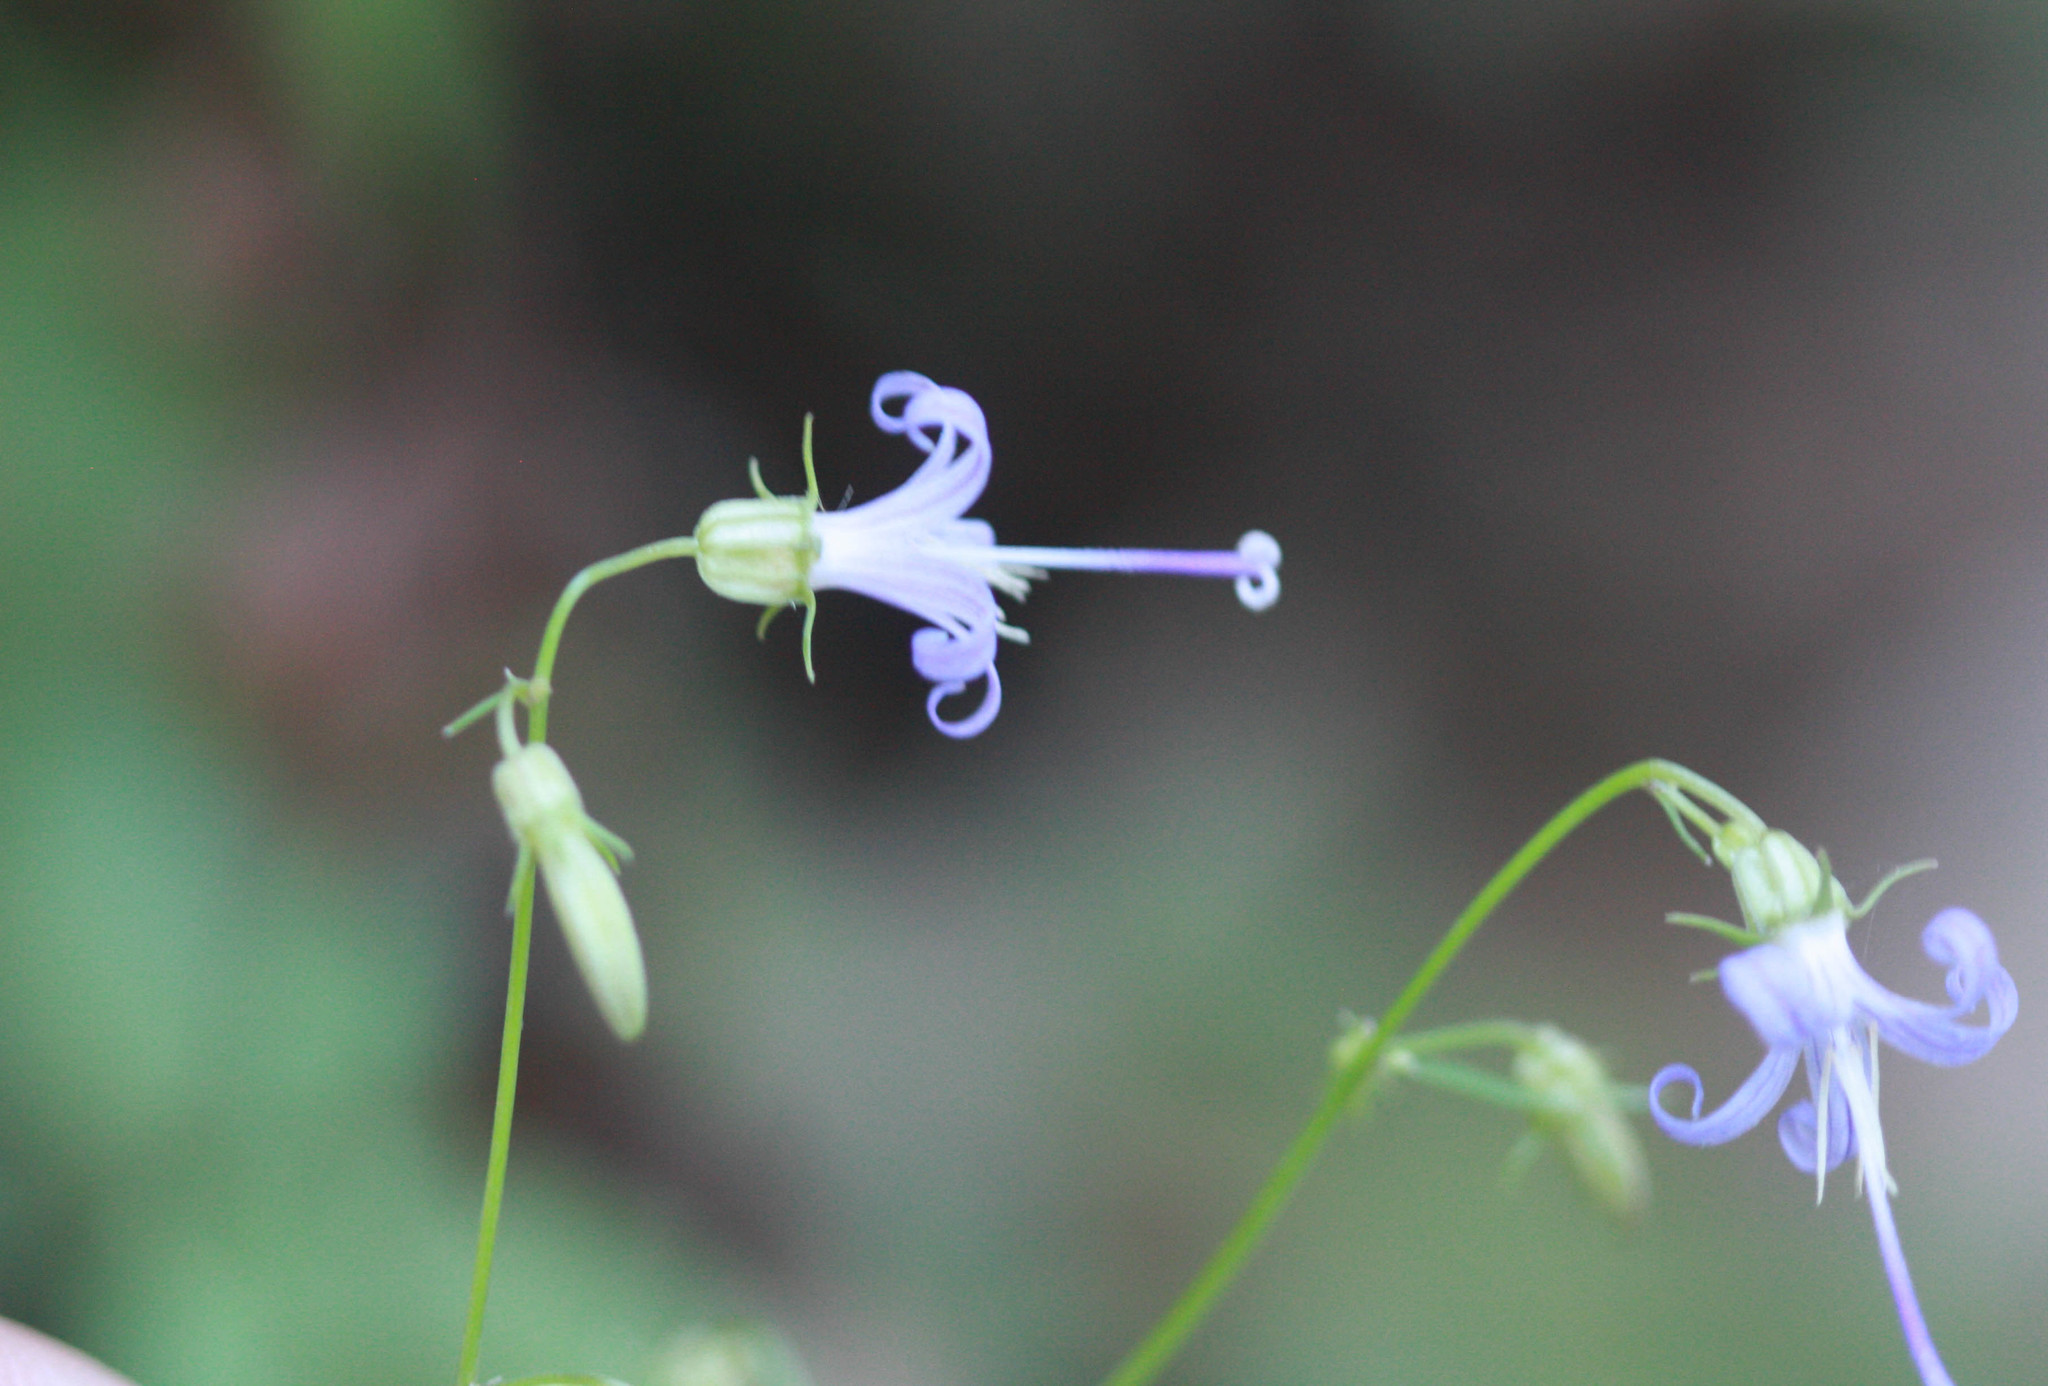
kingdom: Plantae
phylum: Tracheophyta
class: Magnoliopsida
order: Asterales
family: Campanulaceae
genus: Smithiastrum
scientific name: Smithiastrum prenanthoides
